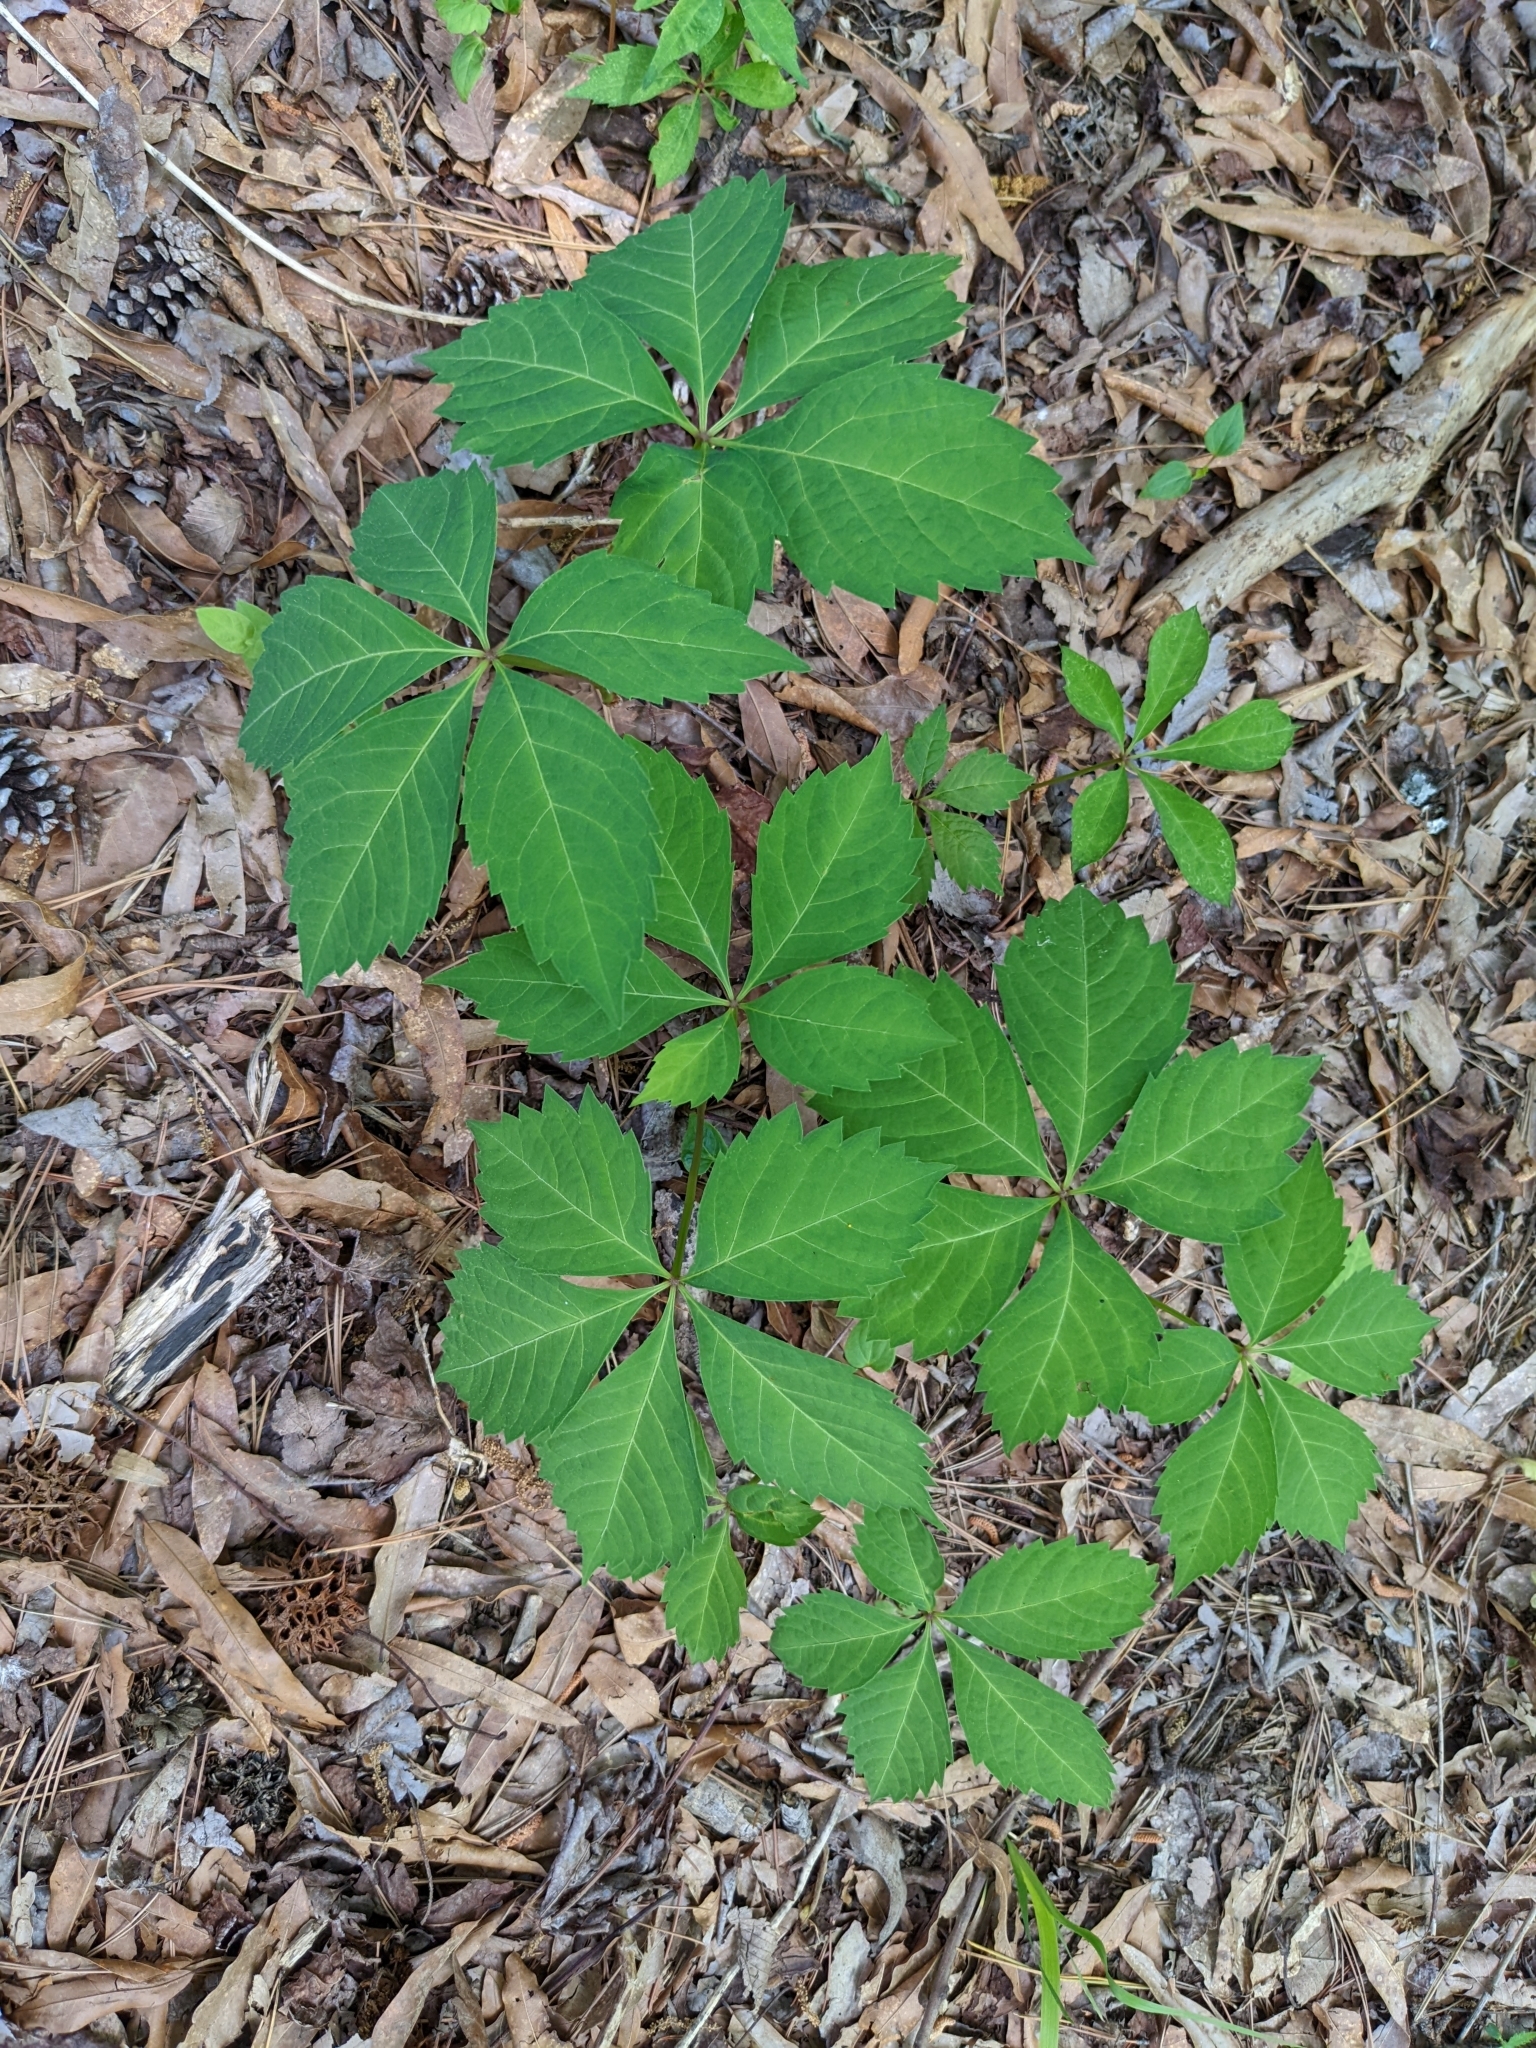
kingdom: Plantae
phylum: Tracheophyta
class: Magnoliopsida
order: Vitales
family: Vitaceae
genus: Parthenocissus
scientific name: Parthenocissus quinquefolia
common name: Virginia-creeper
